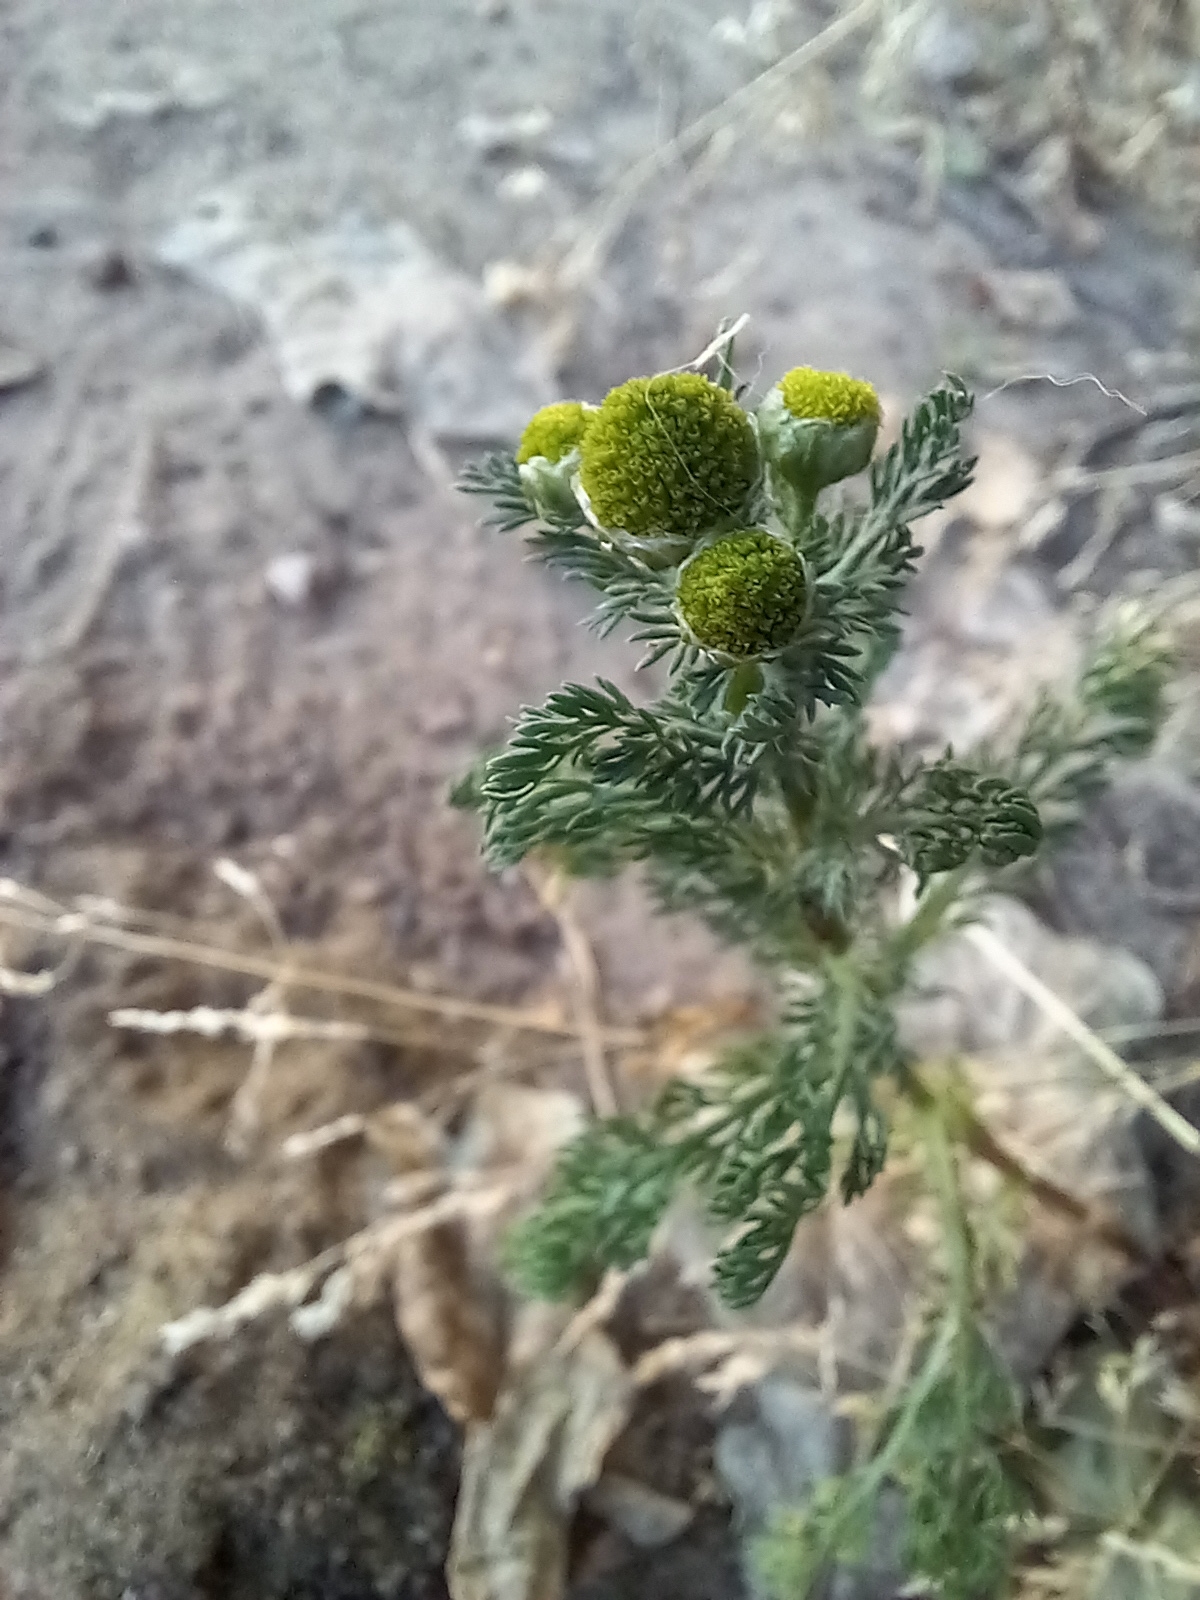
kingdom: Plantae
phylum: Tracheophyta
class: Magnoliopsida
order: Asterales
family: Asteraceae
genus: Matricaria
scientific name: Matricaria discoidea
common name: Disc mayweed
